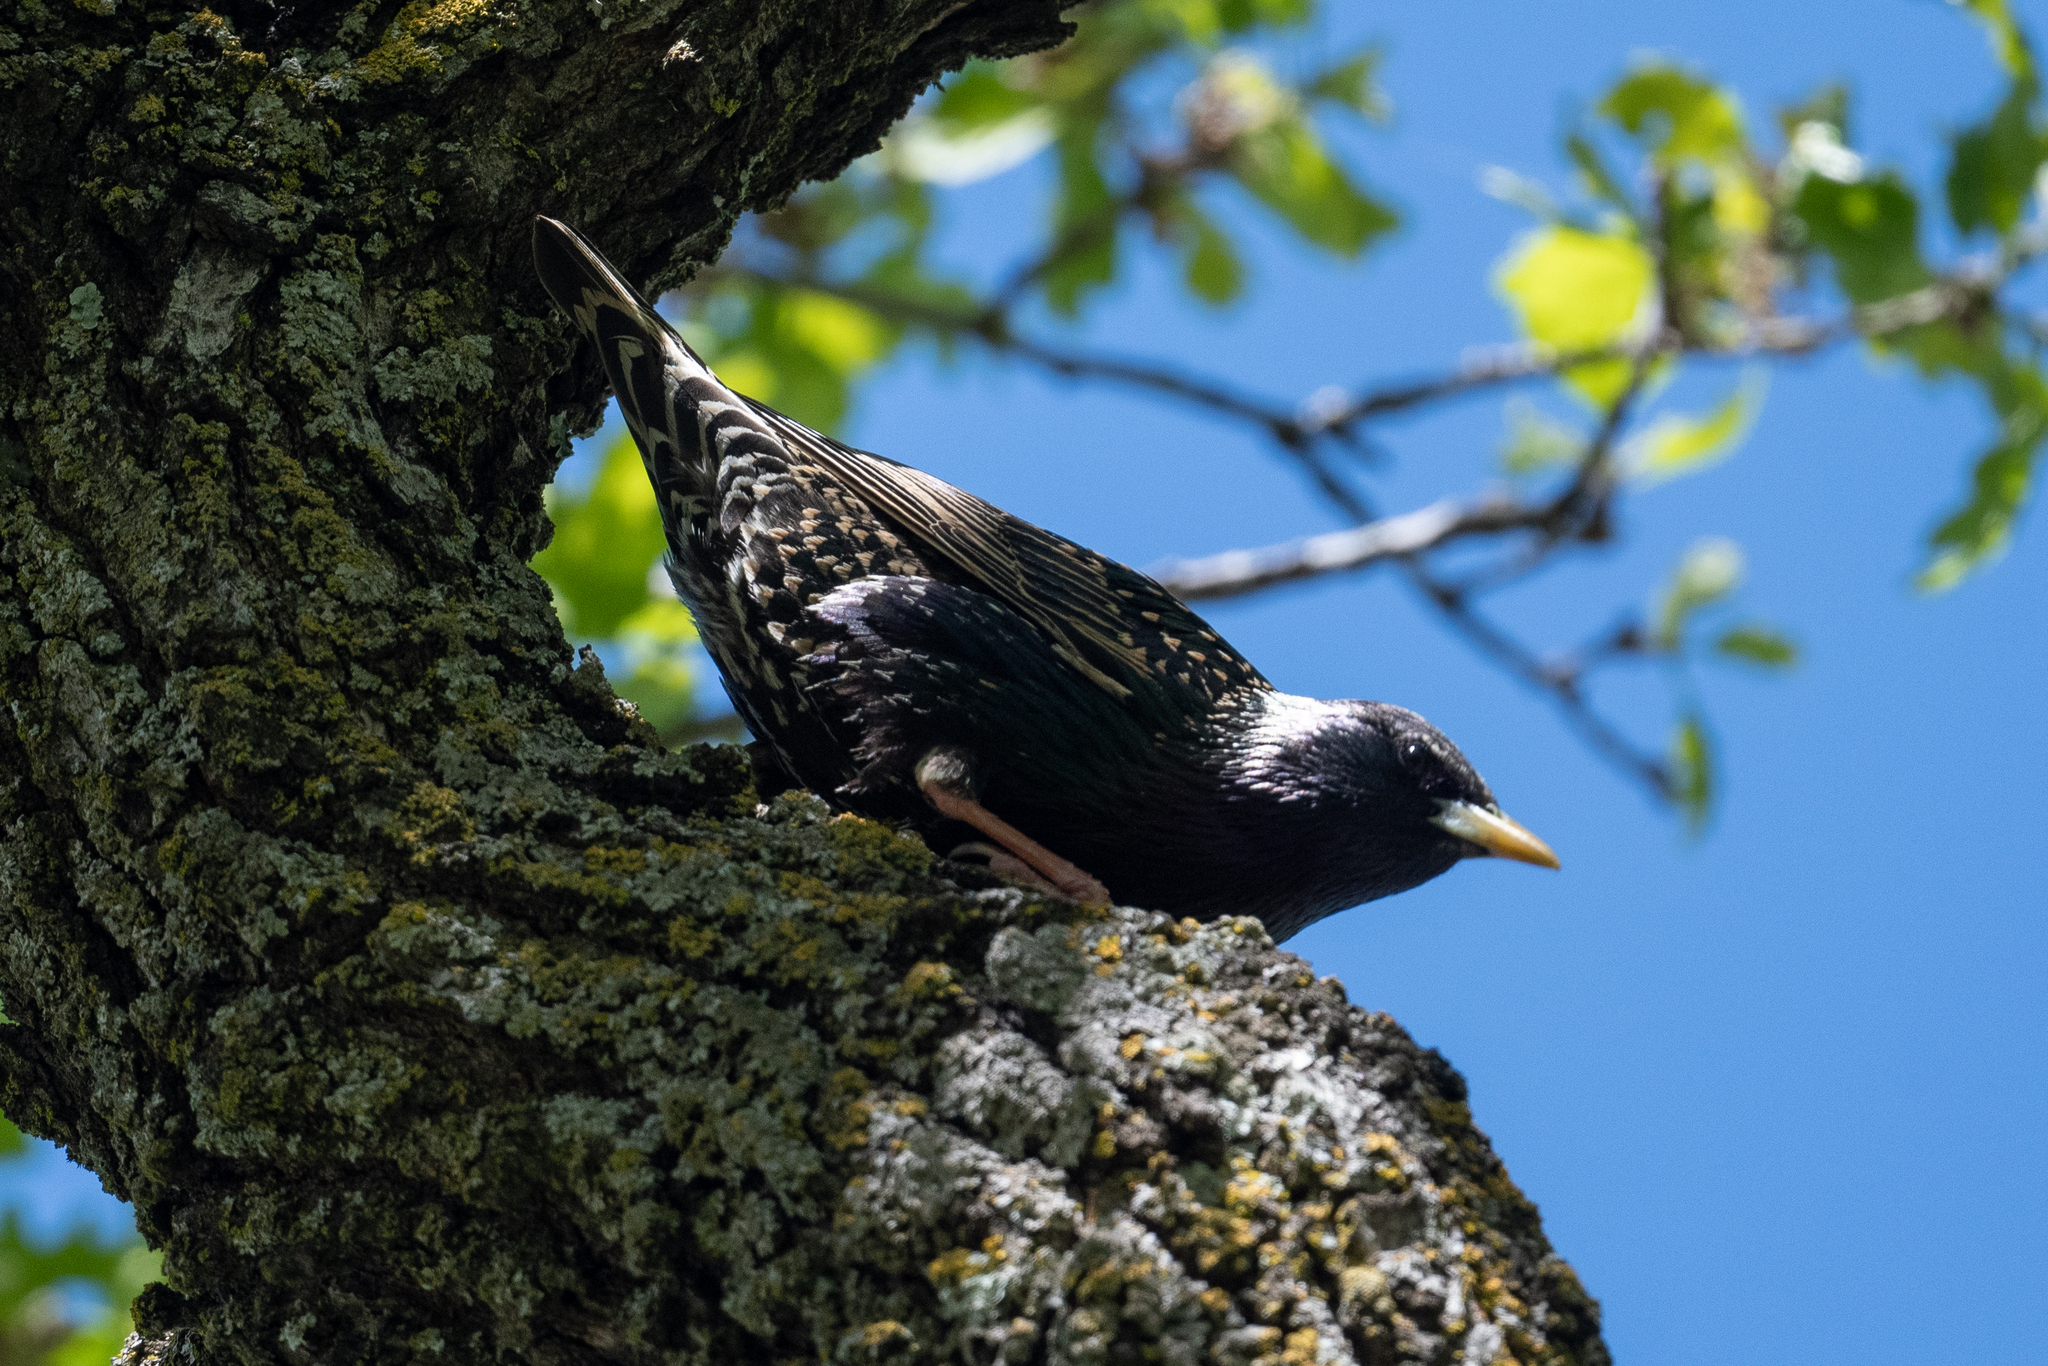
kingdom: Animalia
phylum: Chordata
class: Aves
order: Passeriformes
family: Sturnidae
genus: Sturnus
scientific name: Sturnus vulgaris
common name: Common starling
